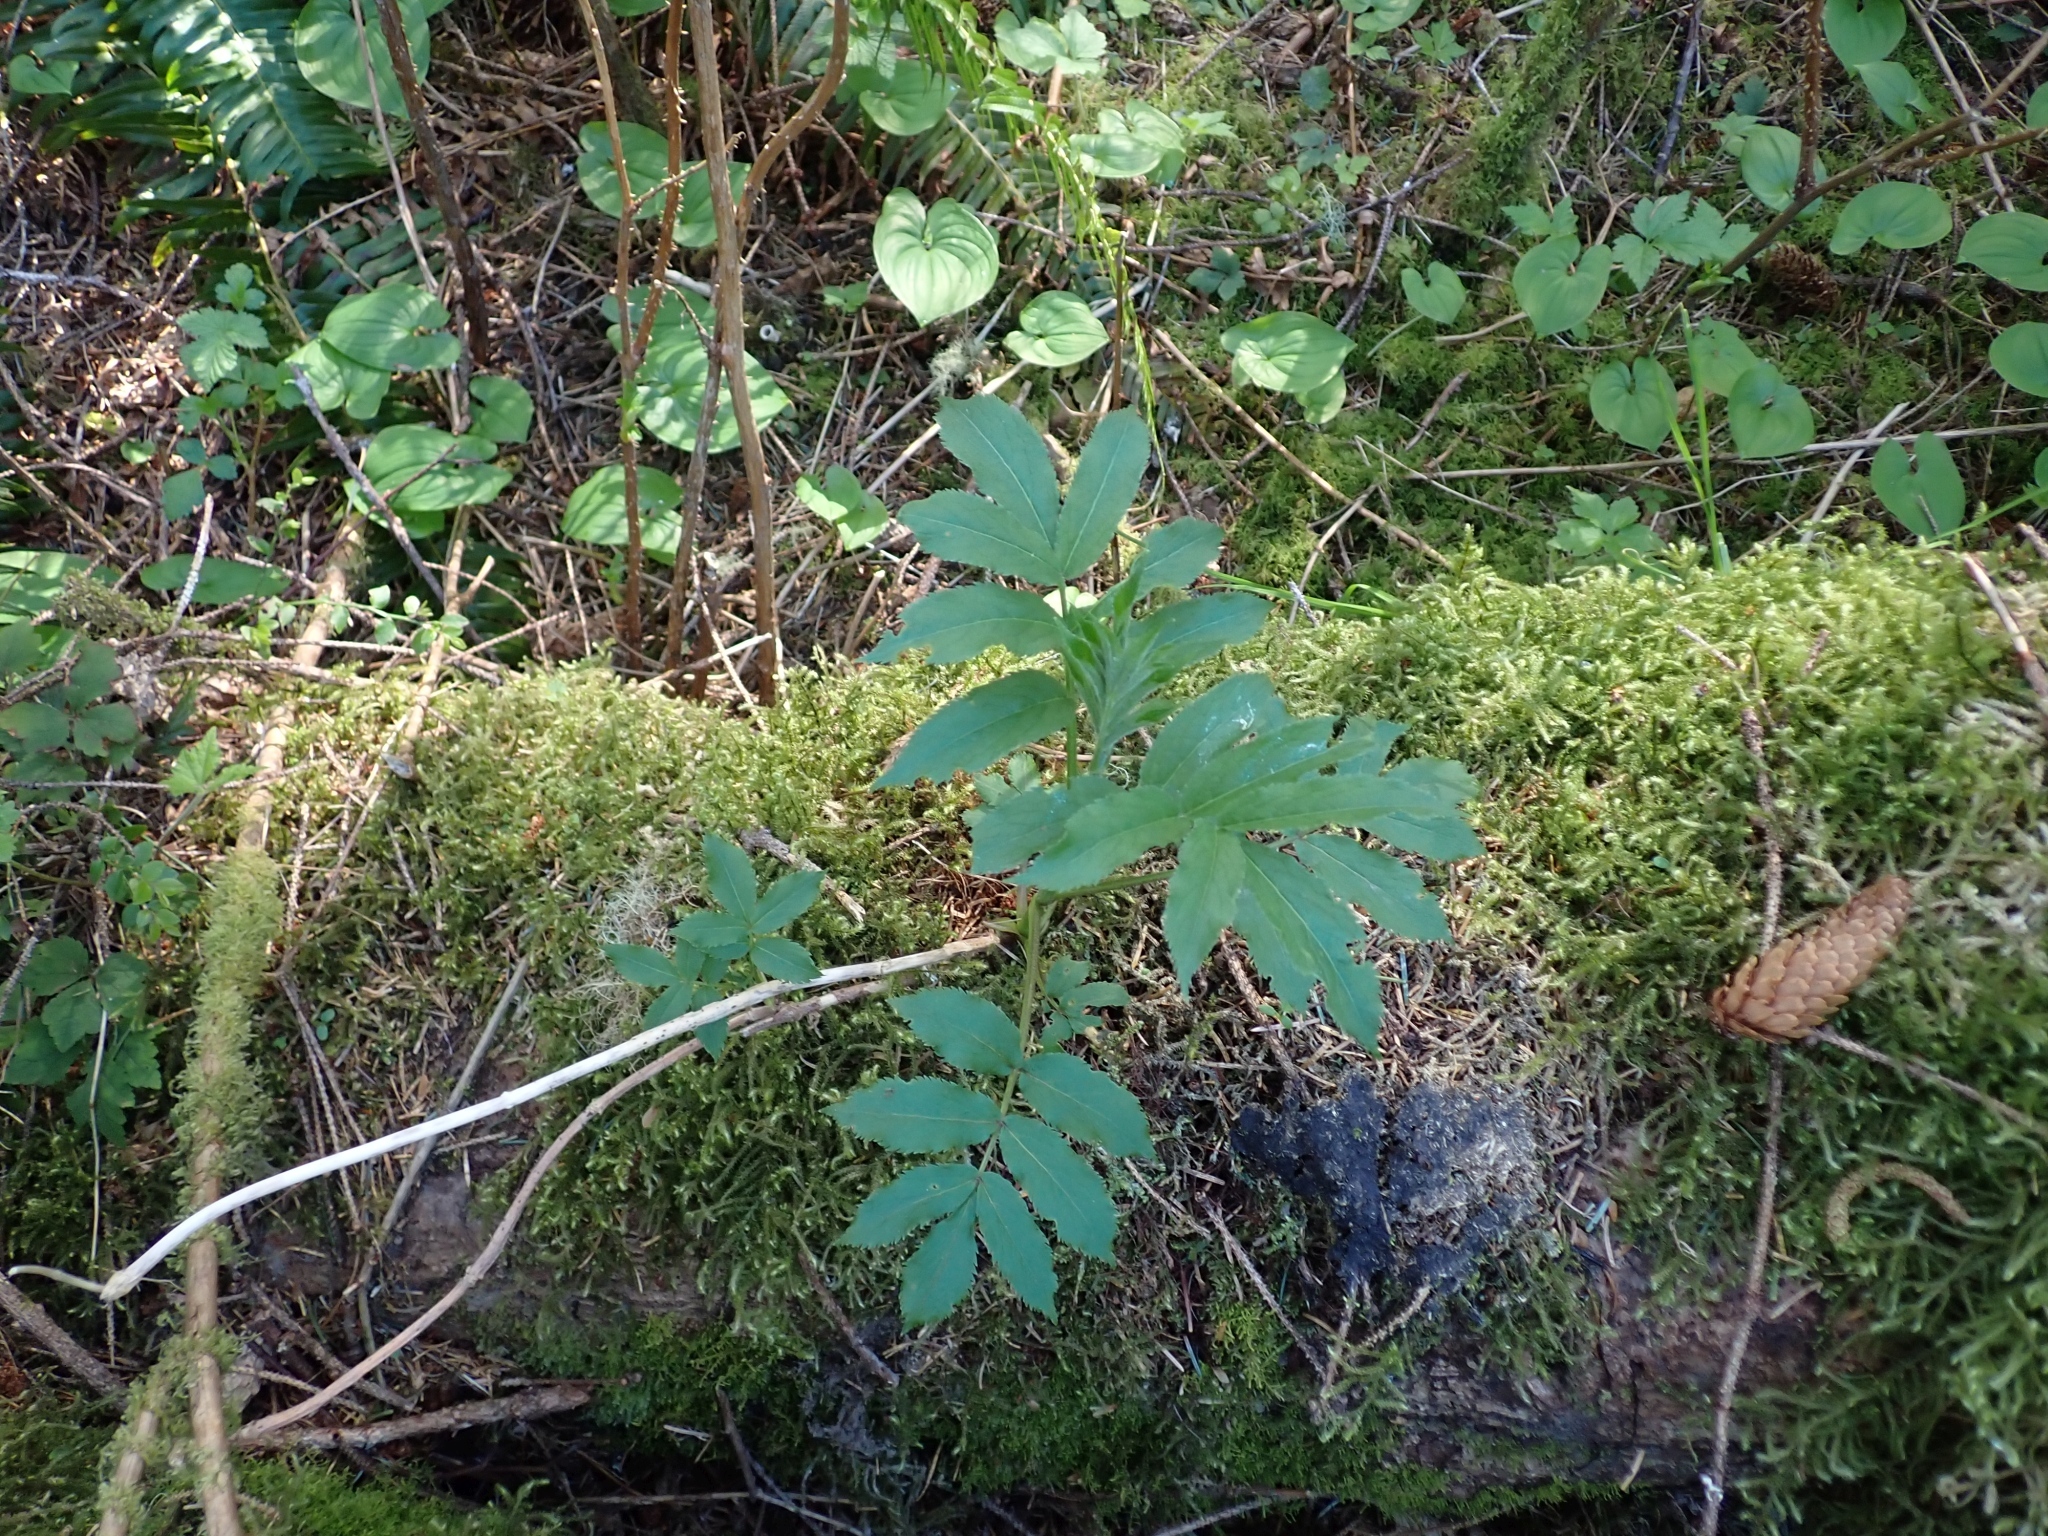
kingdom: Plantae
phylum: Tracheophyta
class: Magnoliopsida
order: Dipsacales
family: Viburnaceae
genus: Sambucus
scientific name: Sambucus racemosa
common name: Red-berried elder
